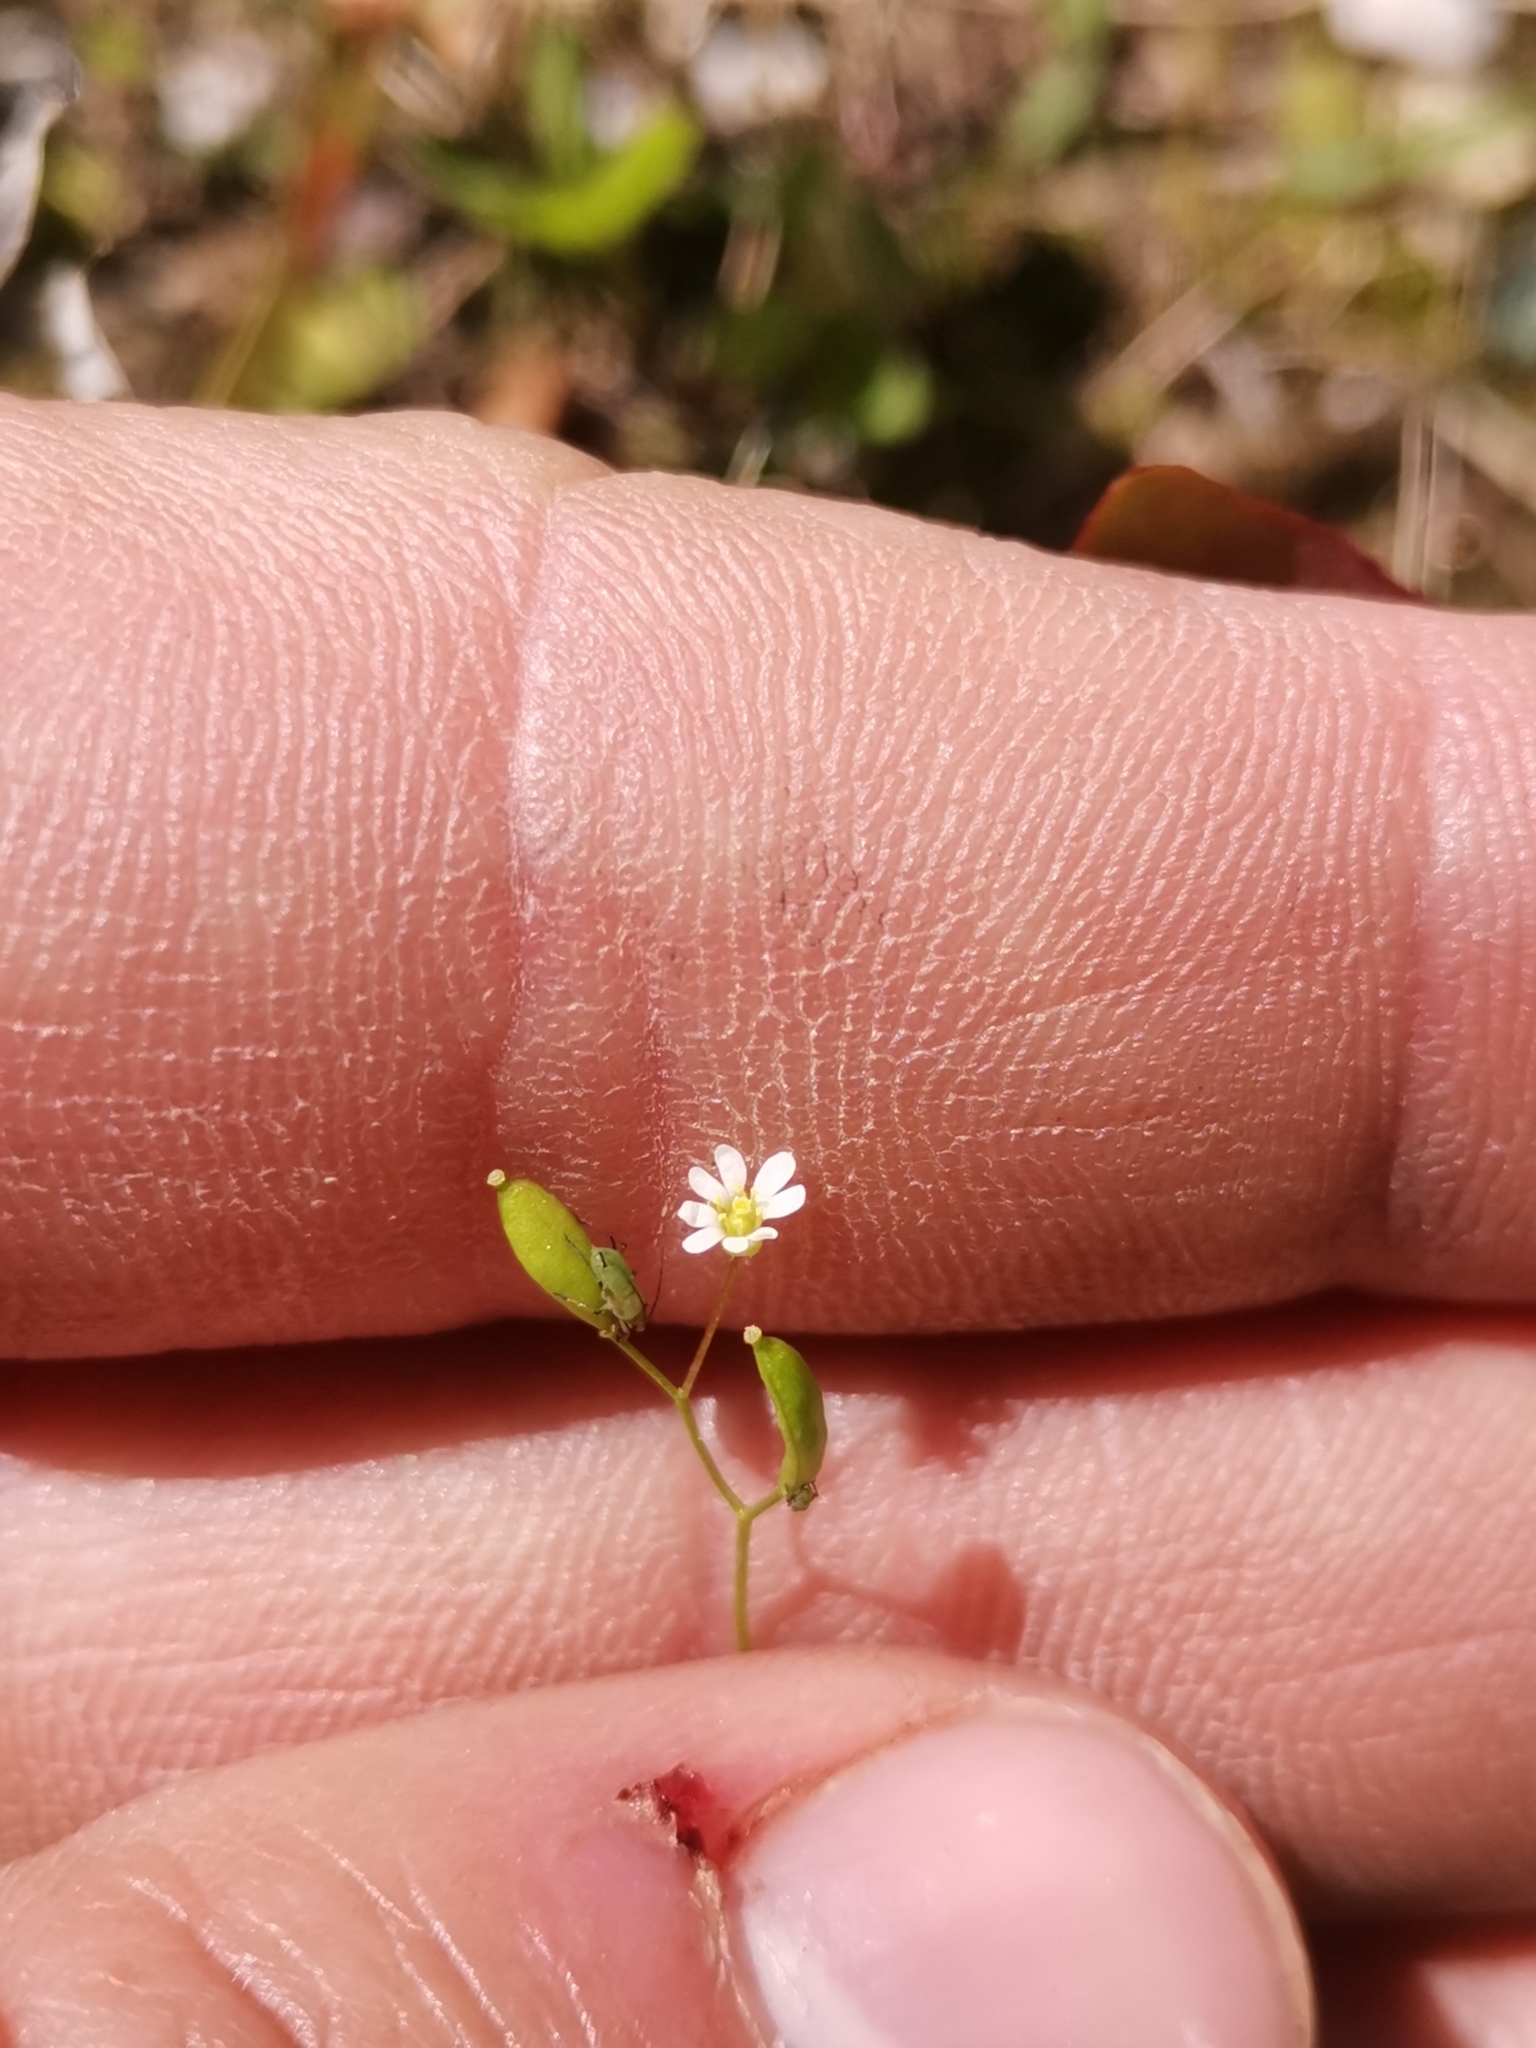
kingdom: Plantae
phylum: Tracheophyta
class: Magnoliopsida
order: Brassicales
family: Brassicaceae
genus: Draba
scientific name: Draba verna
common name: Spring draba
